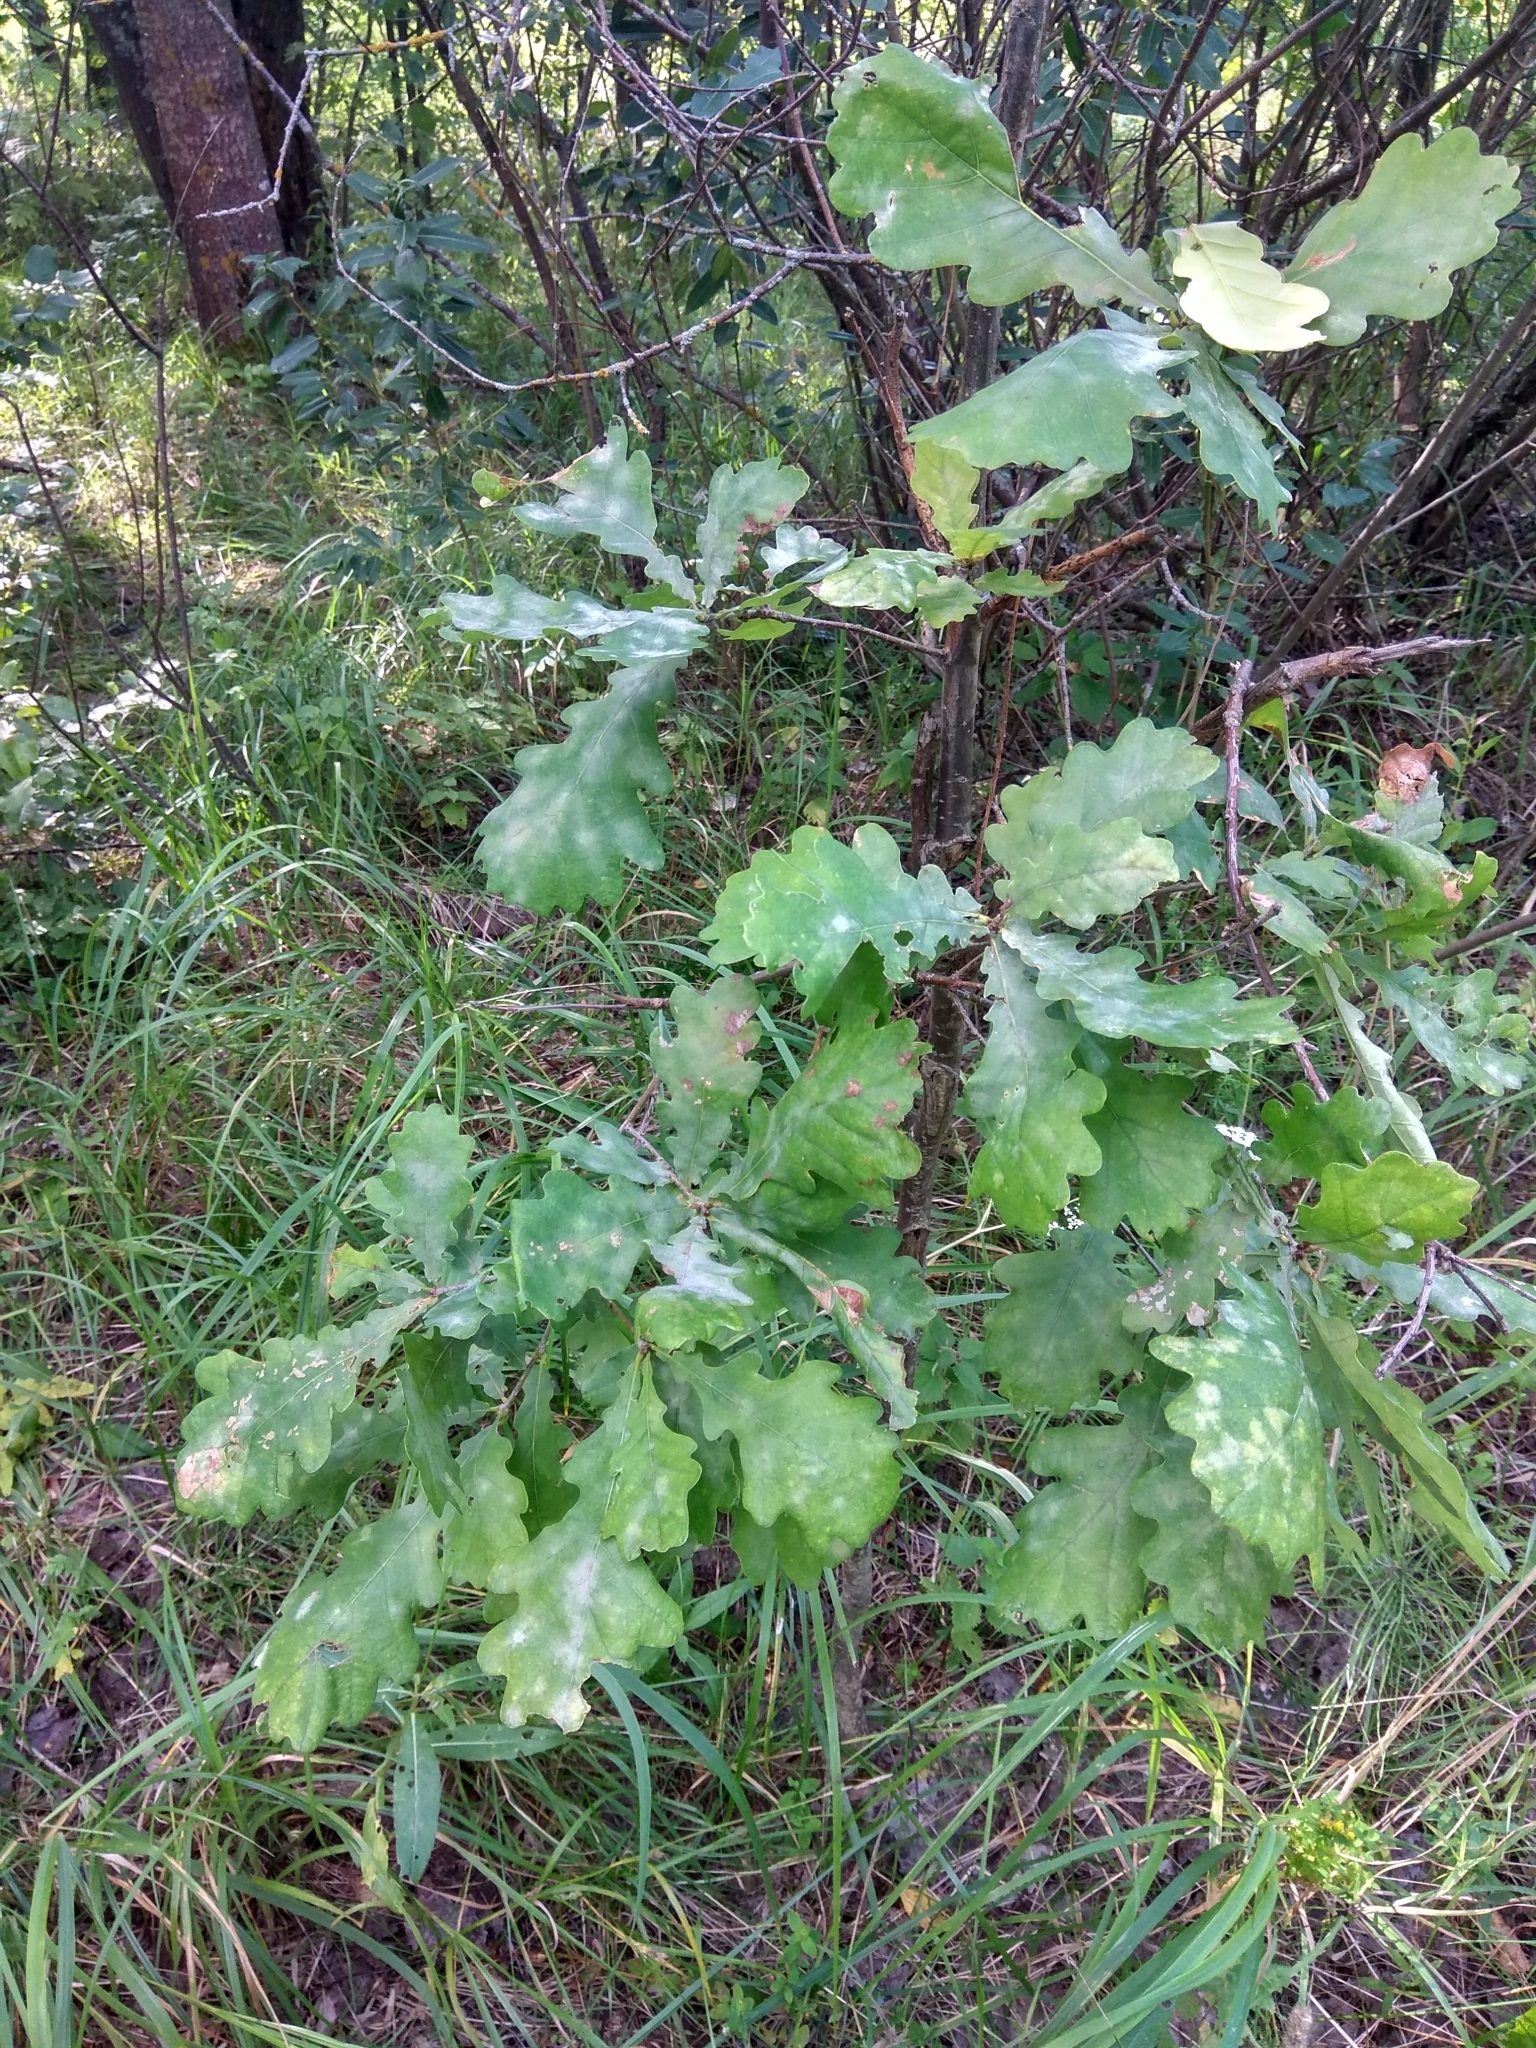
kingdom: Plantae
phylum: Tracheophyta
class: Magnoliopsida
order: Fagales
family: Fagaceae
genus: Quercus
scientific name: Quercus robur
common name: Pedunculate oak
